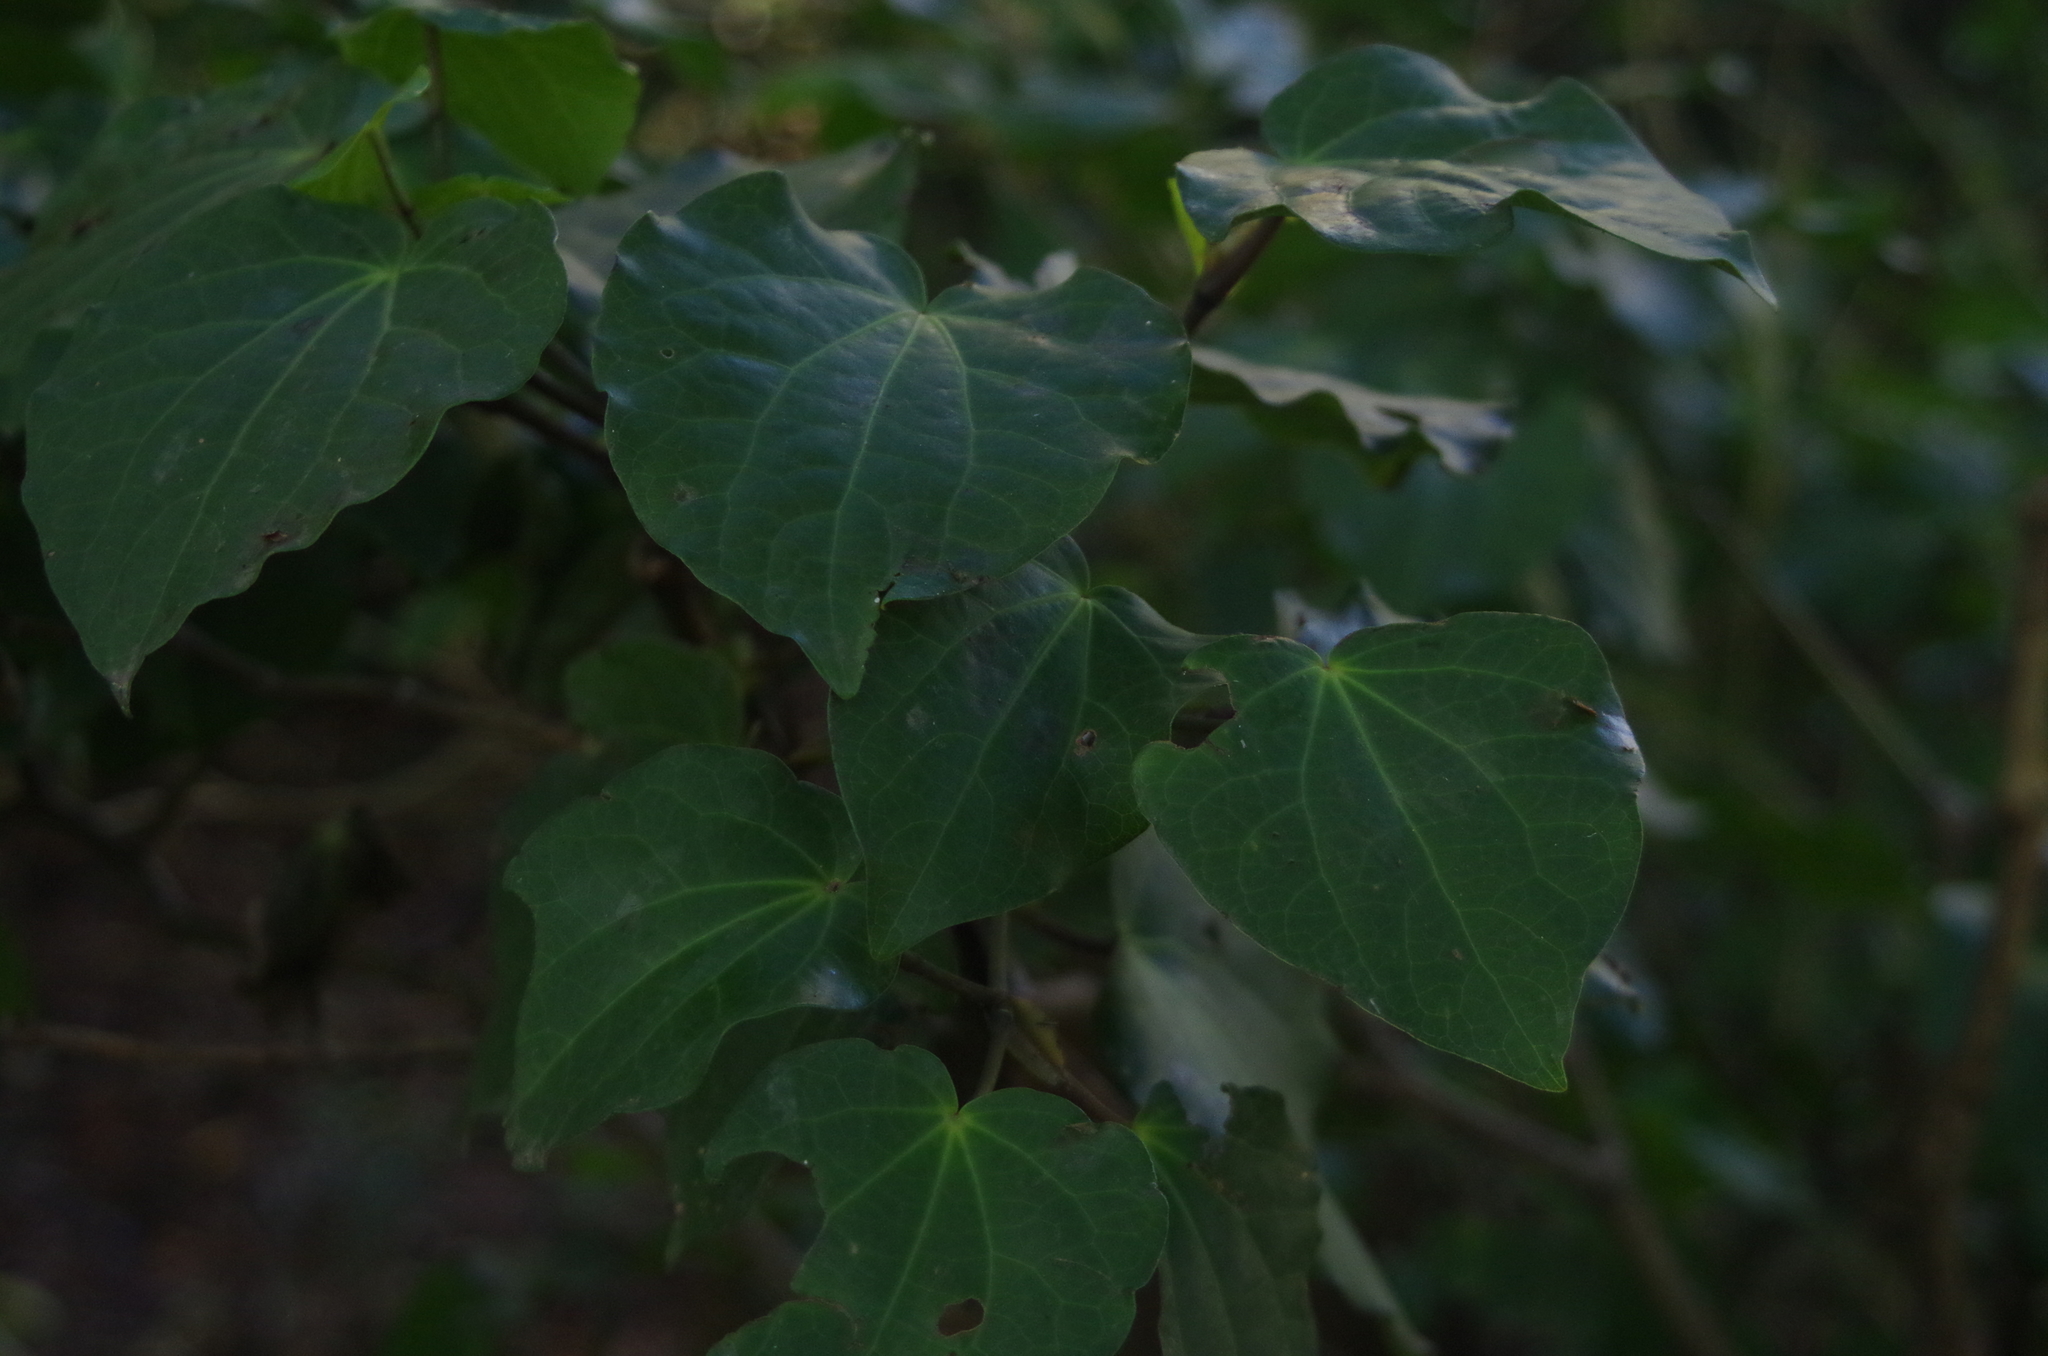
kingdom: Plantae
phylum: Tracheophyta
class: Magnoliopsida
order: Piperales
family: Piperaceae
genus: Macropiper
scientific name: Macropiper excelsum
